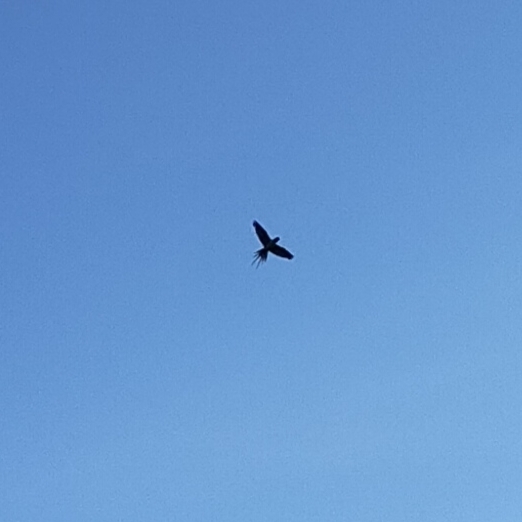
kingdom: Animalia
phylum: Chordata
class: Aves
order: Passeriformes
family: Hirundinidae
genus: Hirundo
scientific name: Hirundo rustica
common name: Barn swallow
